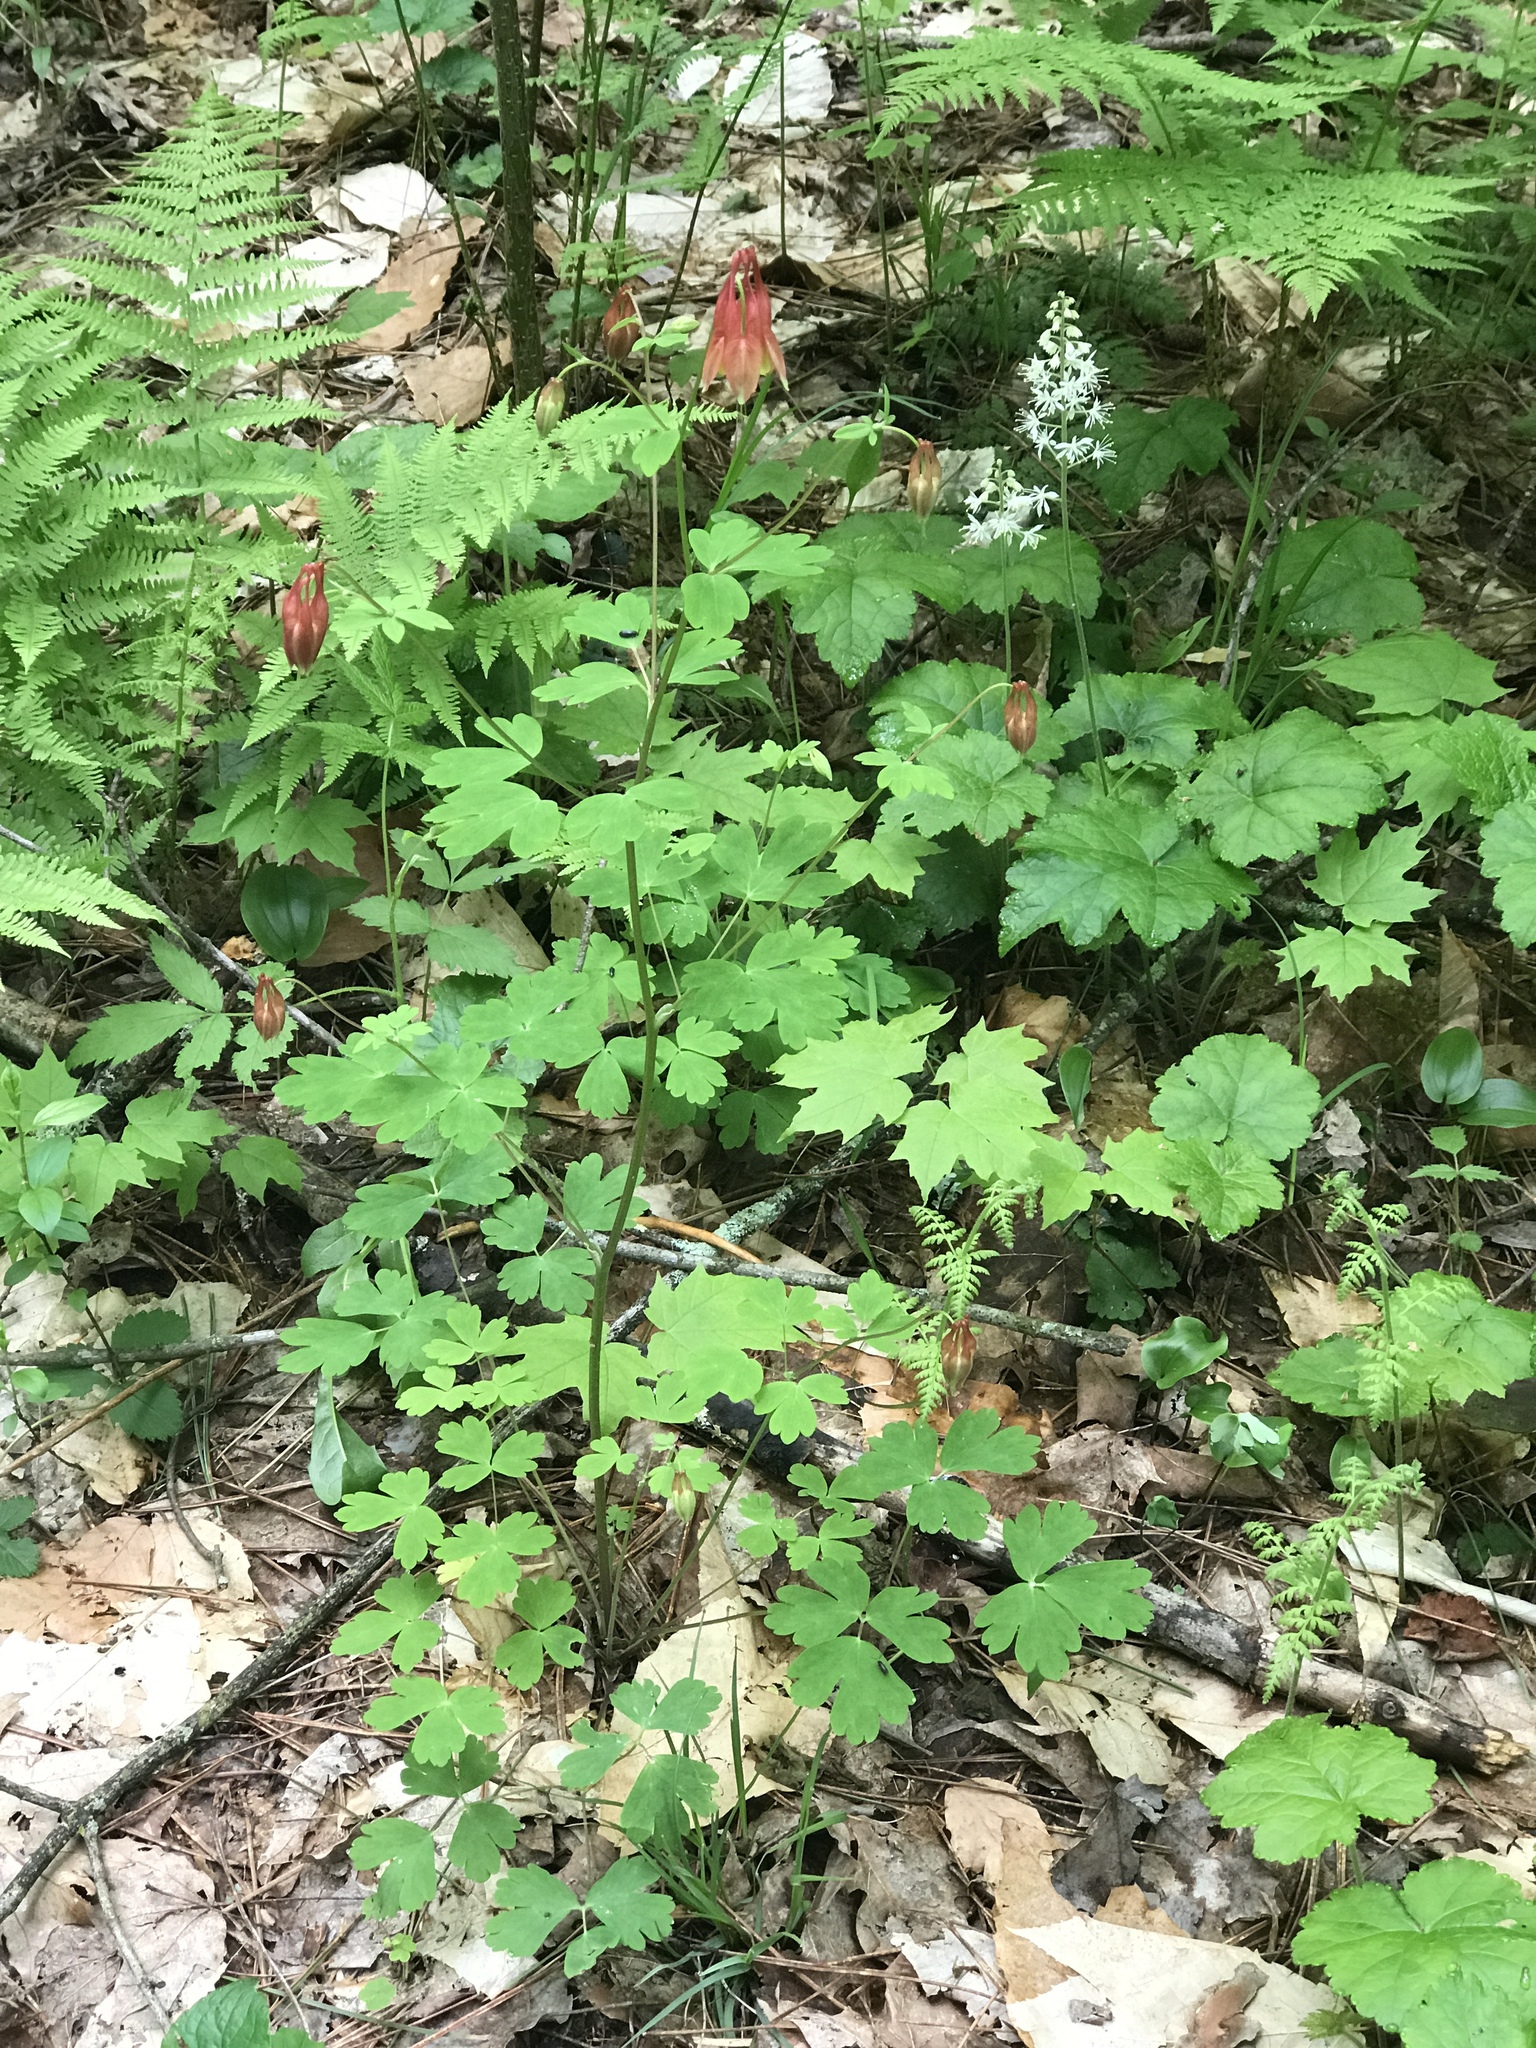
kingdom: Plantae
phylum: Tracheophyta
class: Magnoliopsida
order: Saxifragales
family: Saxifragaceae
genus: Tiarella
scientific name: Tiarella stolonifera
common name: Stoloniferous foamflower
